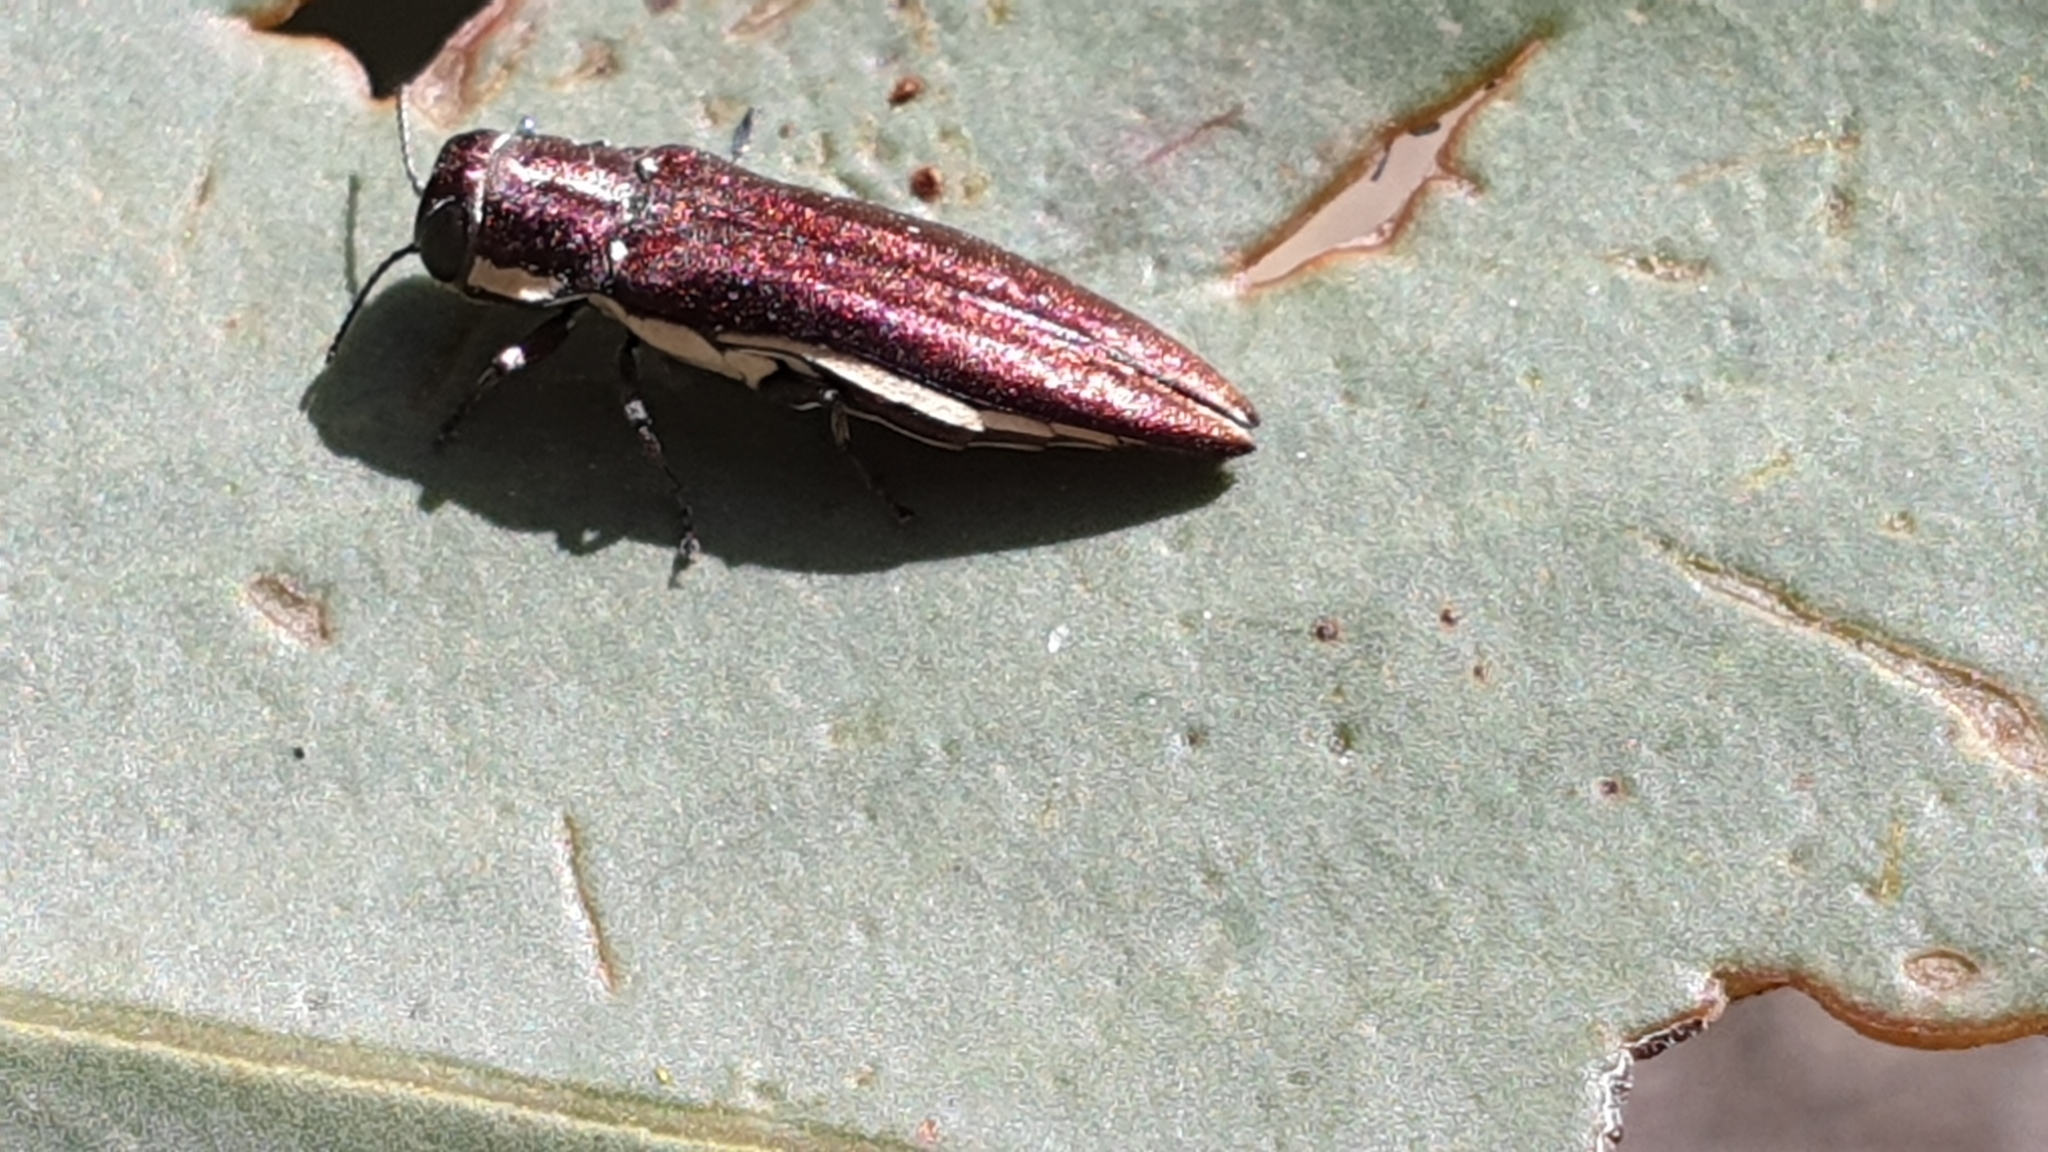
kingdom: Animalia
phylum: Arthropoda
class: Insecta
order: Coleoptera
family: Buprestidae
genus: Agrilus
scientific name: Agrilus hypoleucus
